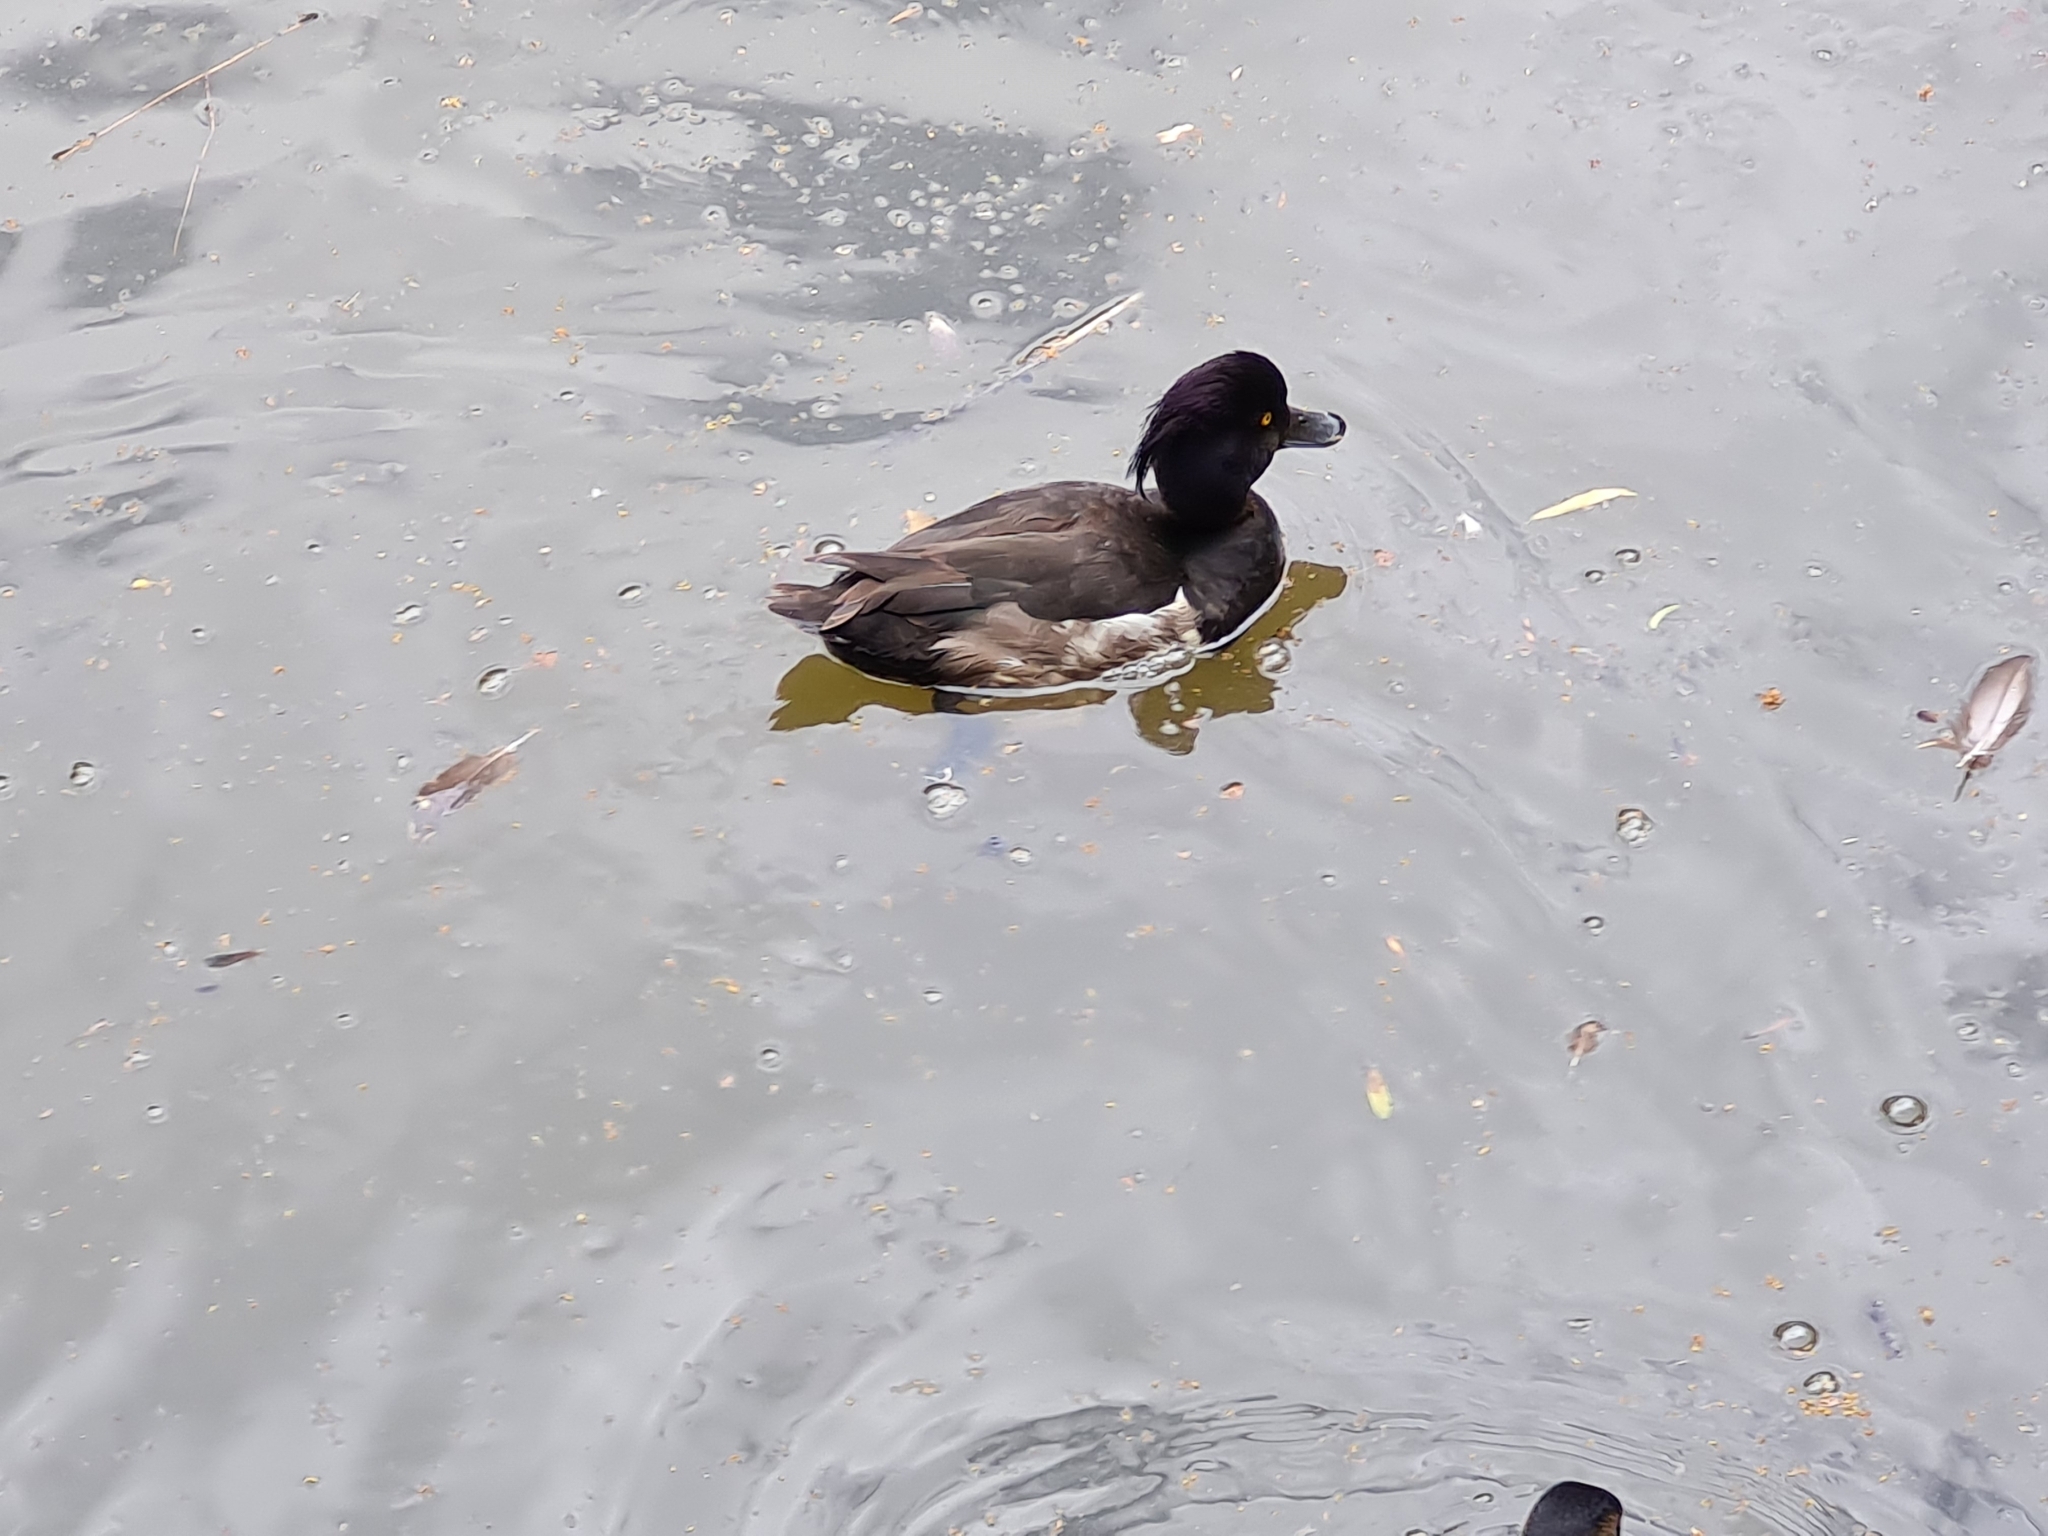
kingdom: Animalia
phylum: Chordata
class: Aves
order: Anseriformes
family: Anatidae
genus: Aythya
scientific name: Aythya fuligula
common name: Tufted duck
